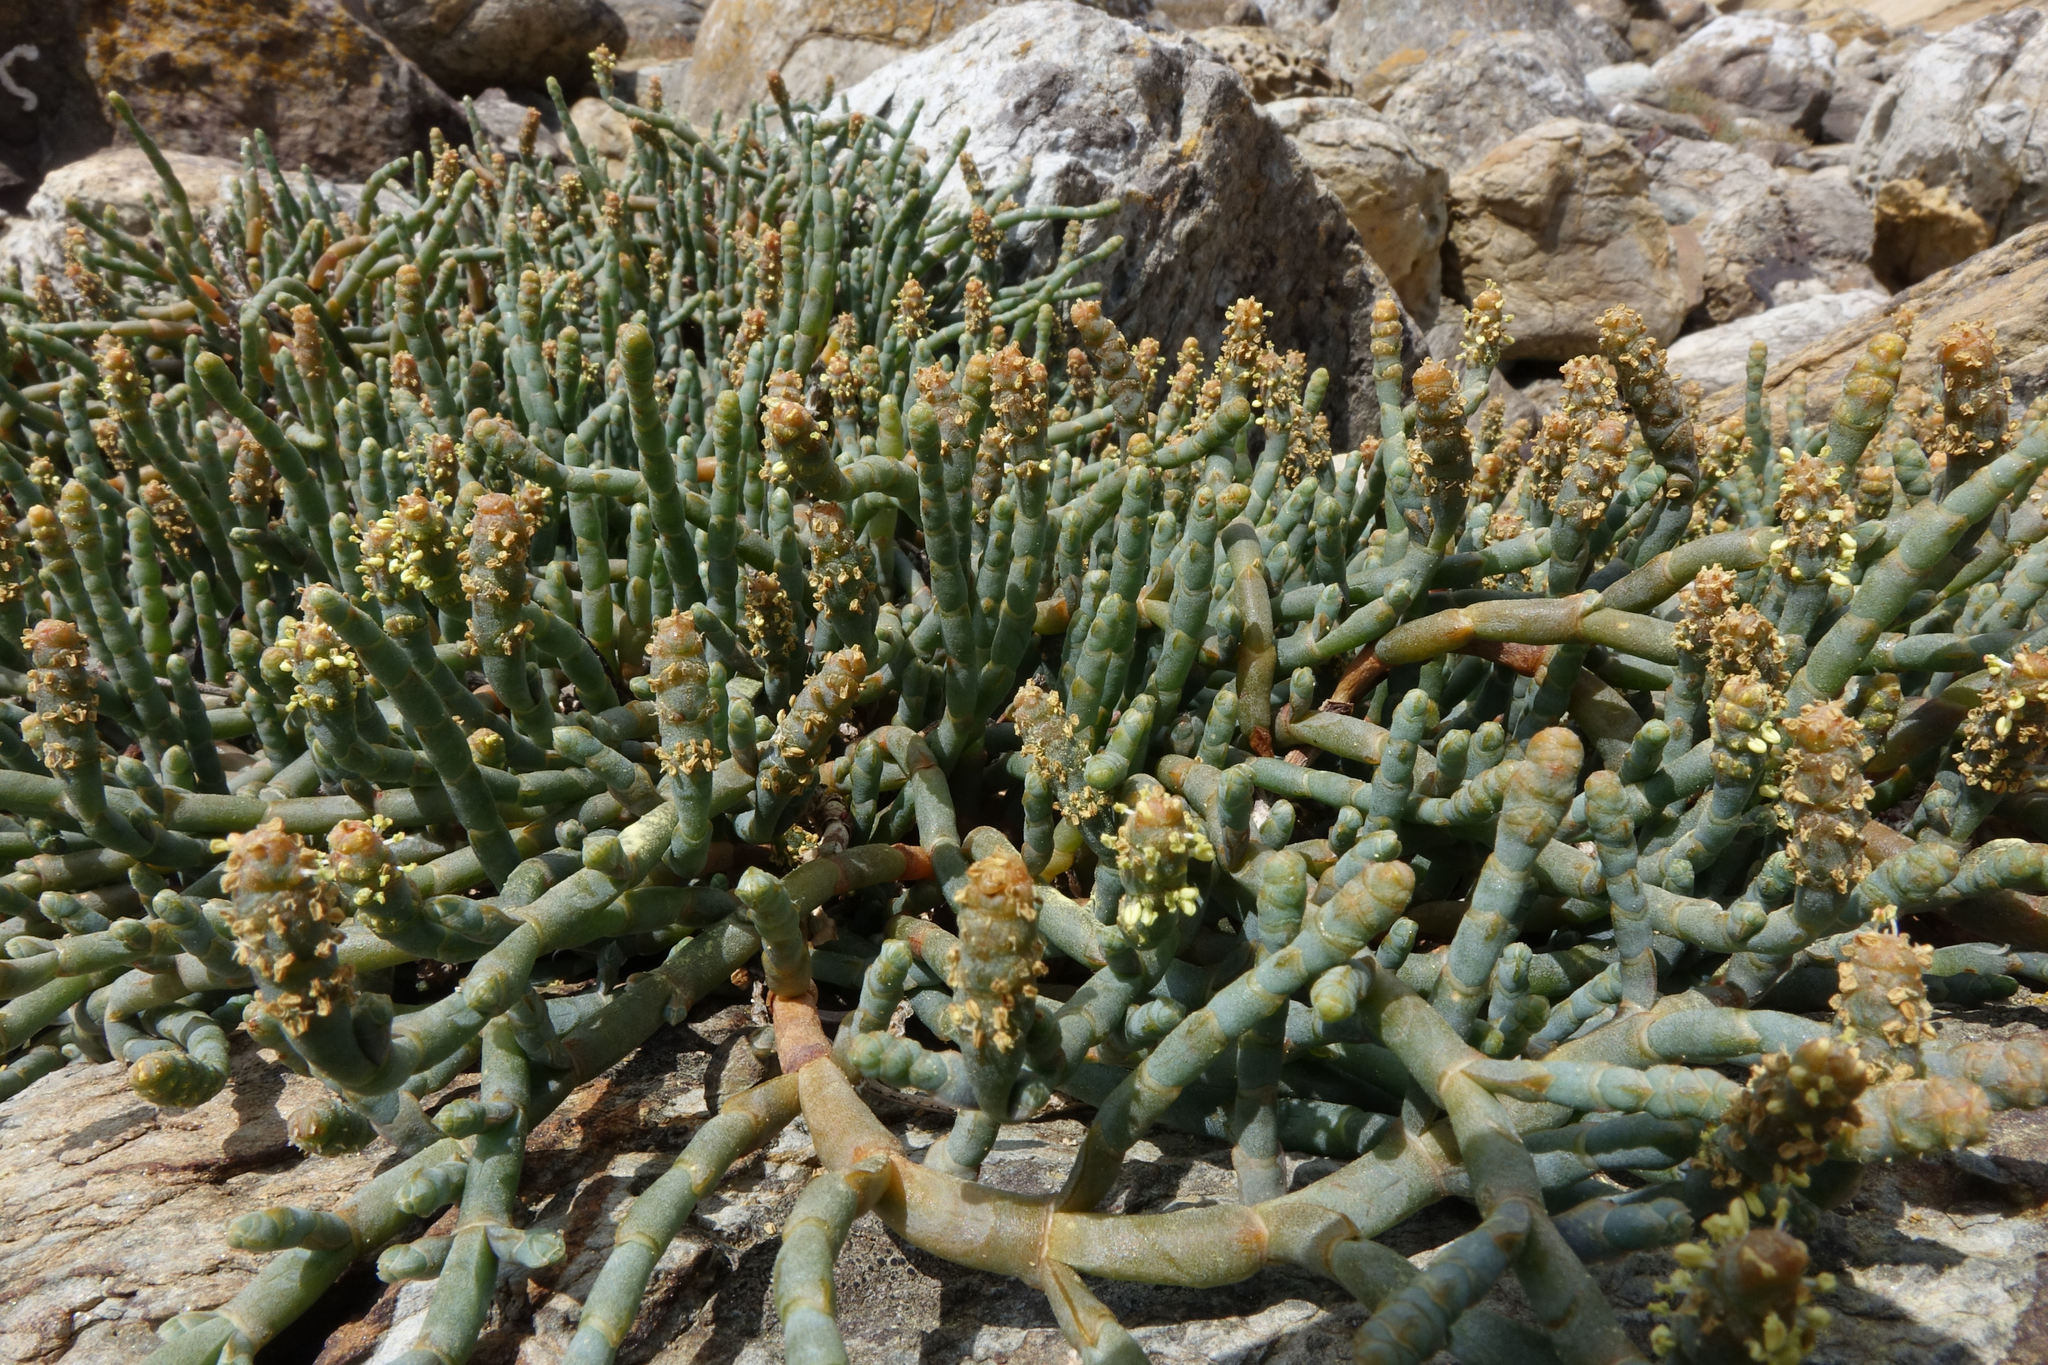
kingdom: Plantae
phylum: Tracheophyta
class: Magnoliopsida
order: Caryophyllales
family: Amaranthaceae
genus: Salicornia
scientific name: Salicornia quinqueflora
